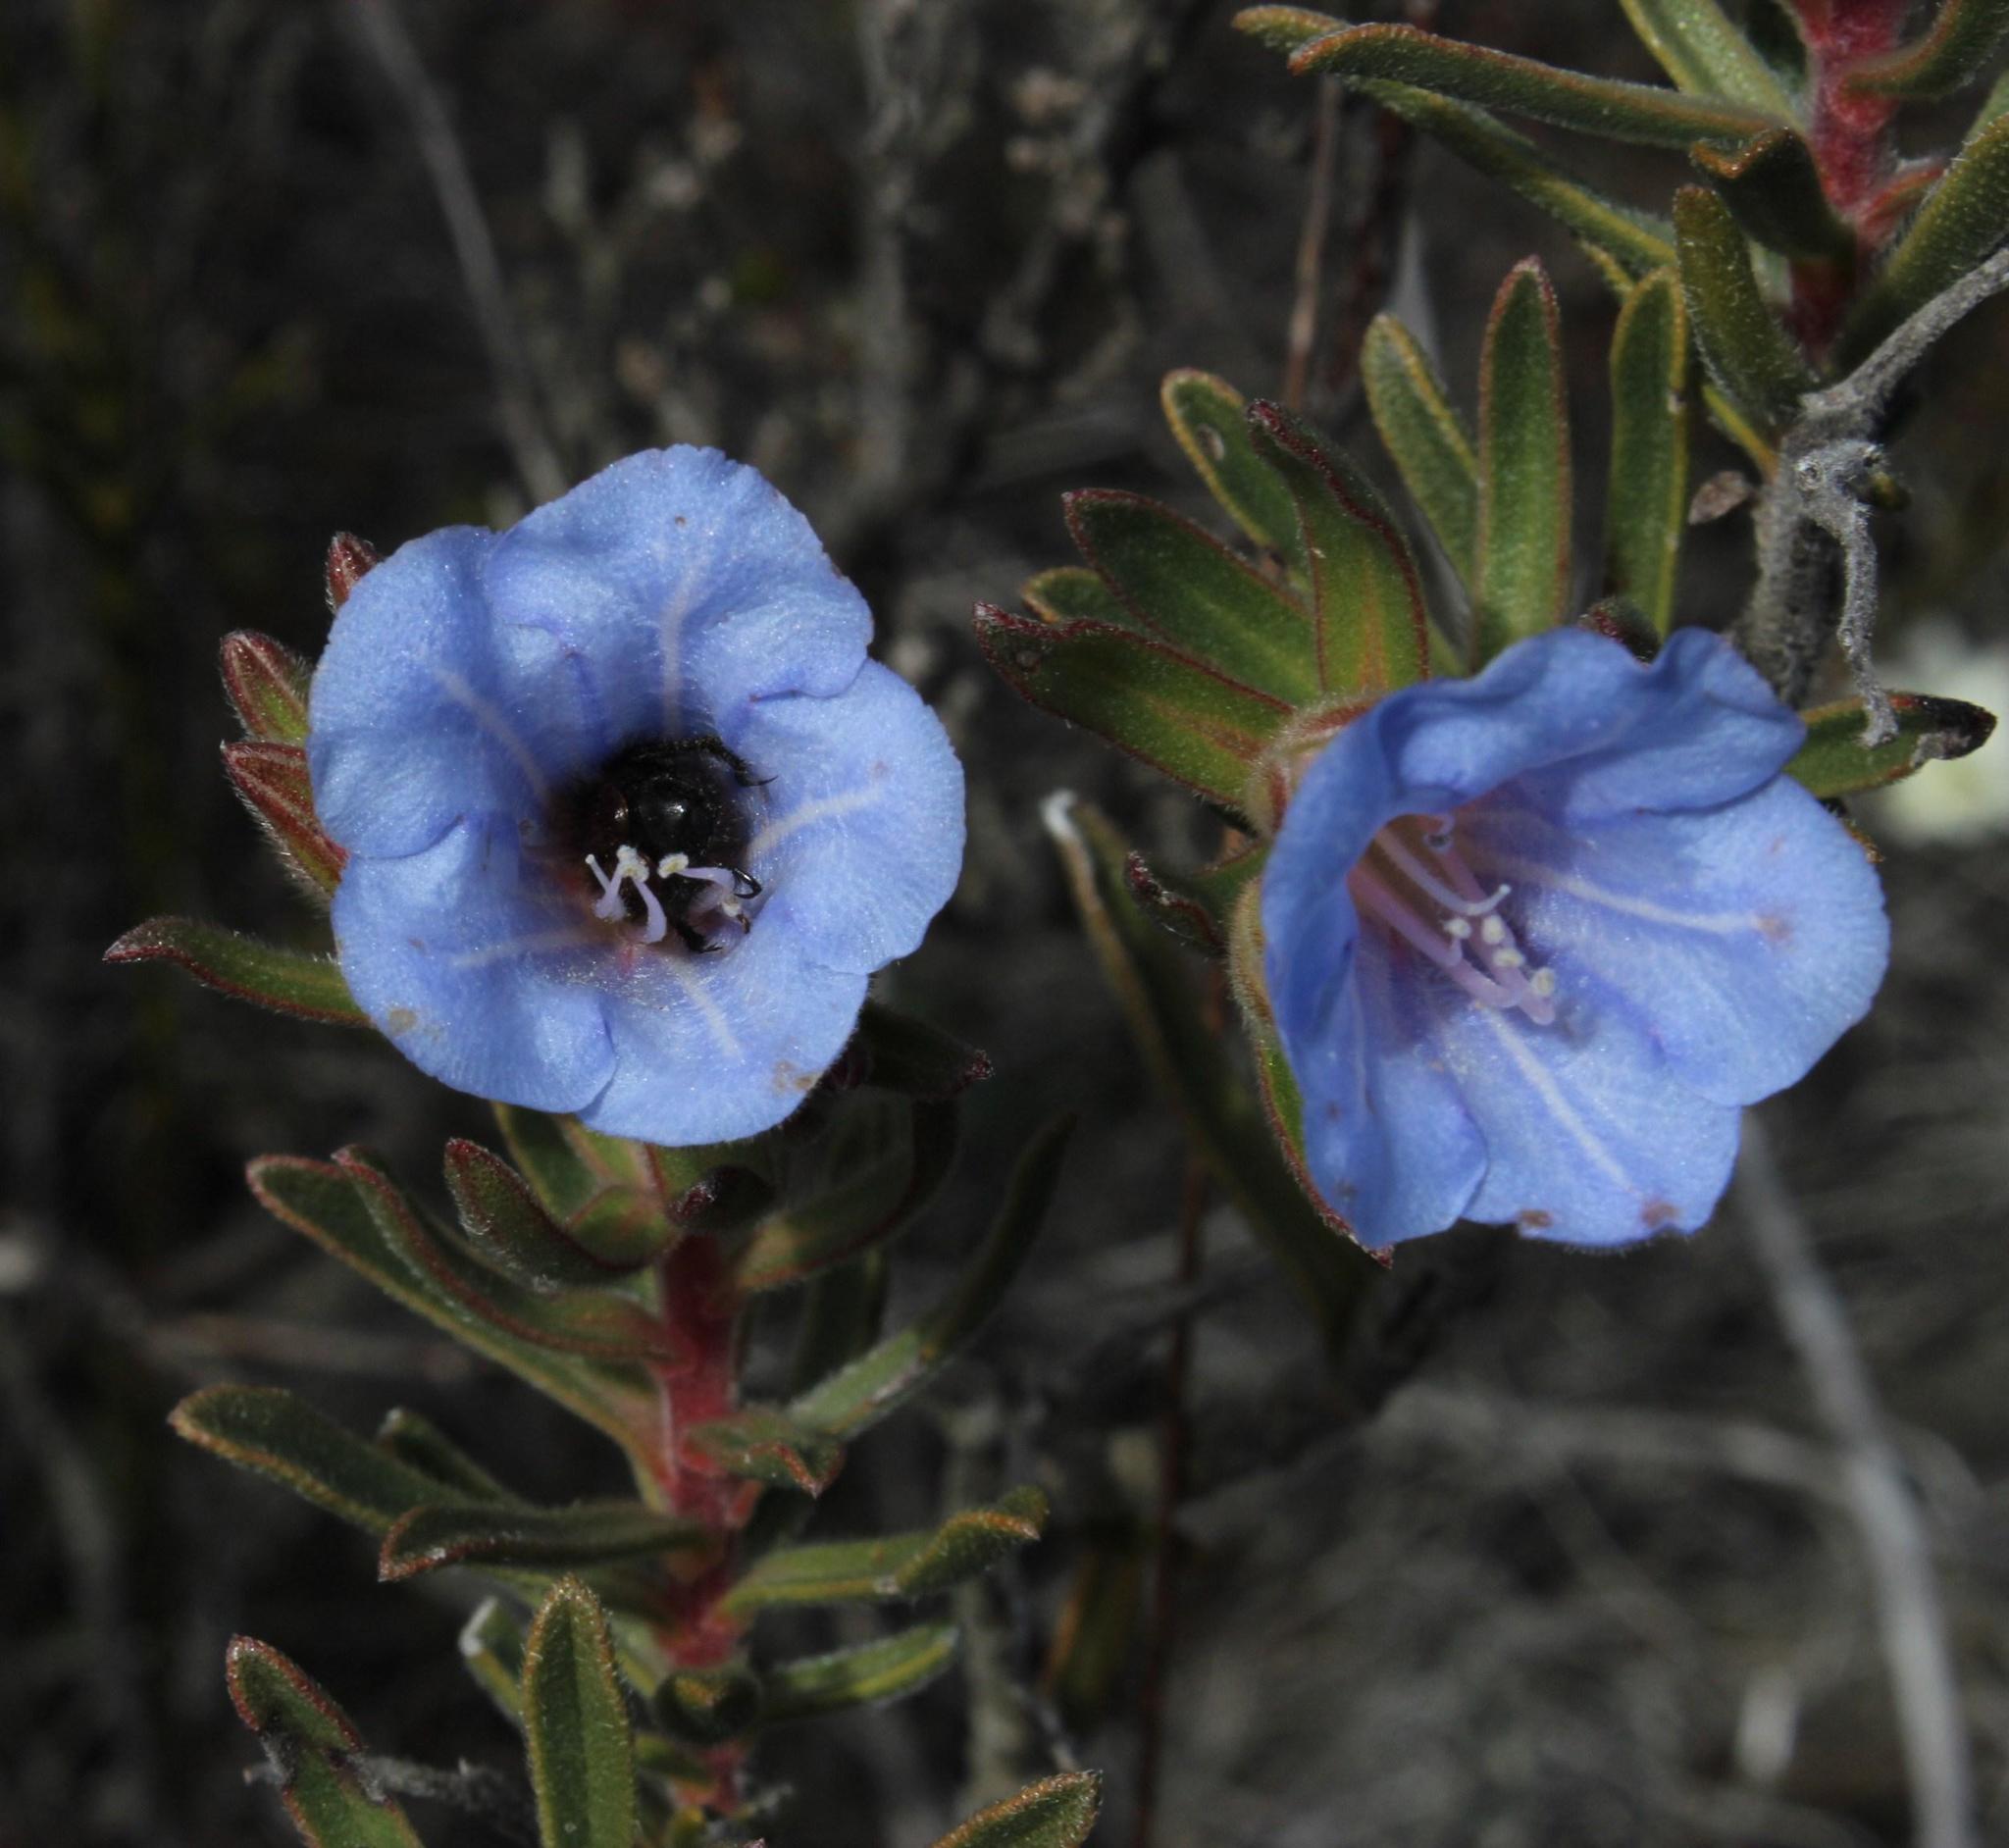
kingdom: Plantae
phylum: Tracheophyta
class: Magnoliopsida
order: Boraginales
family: Boraginaceae
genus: Lobostemon
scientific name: Lobostemon fruticosus
